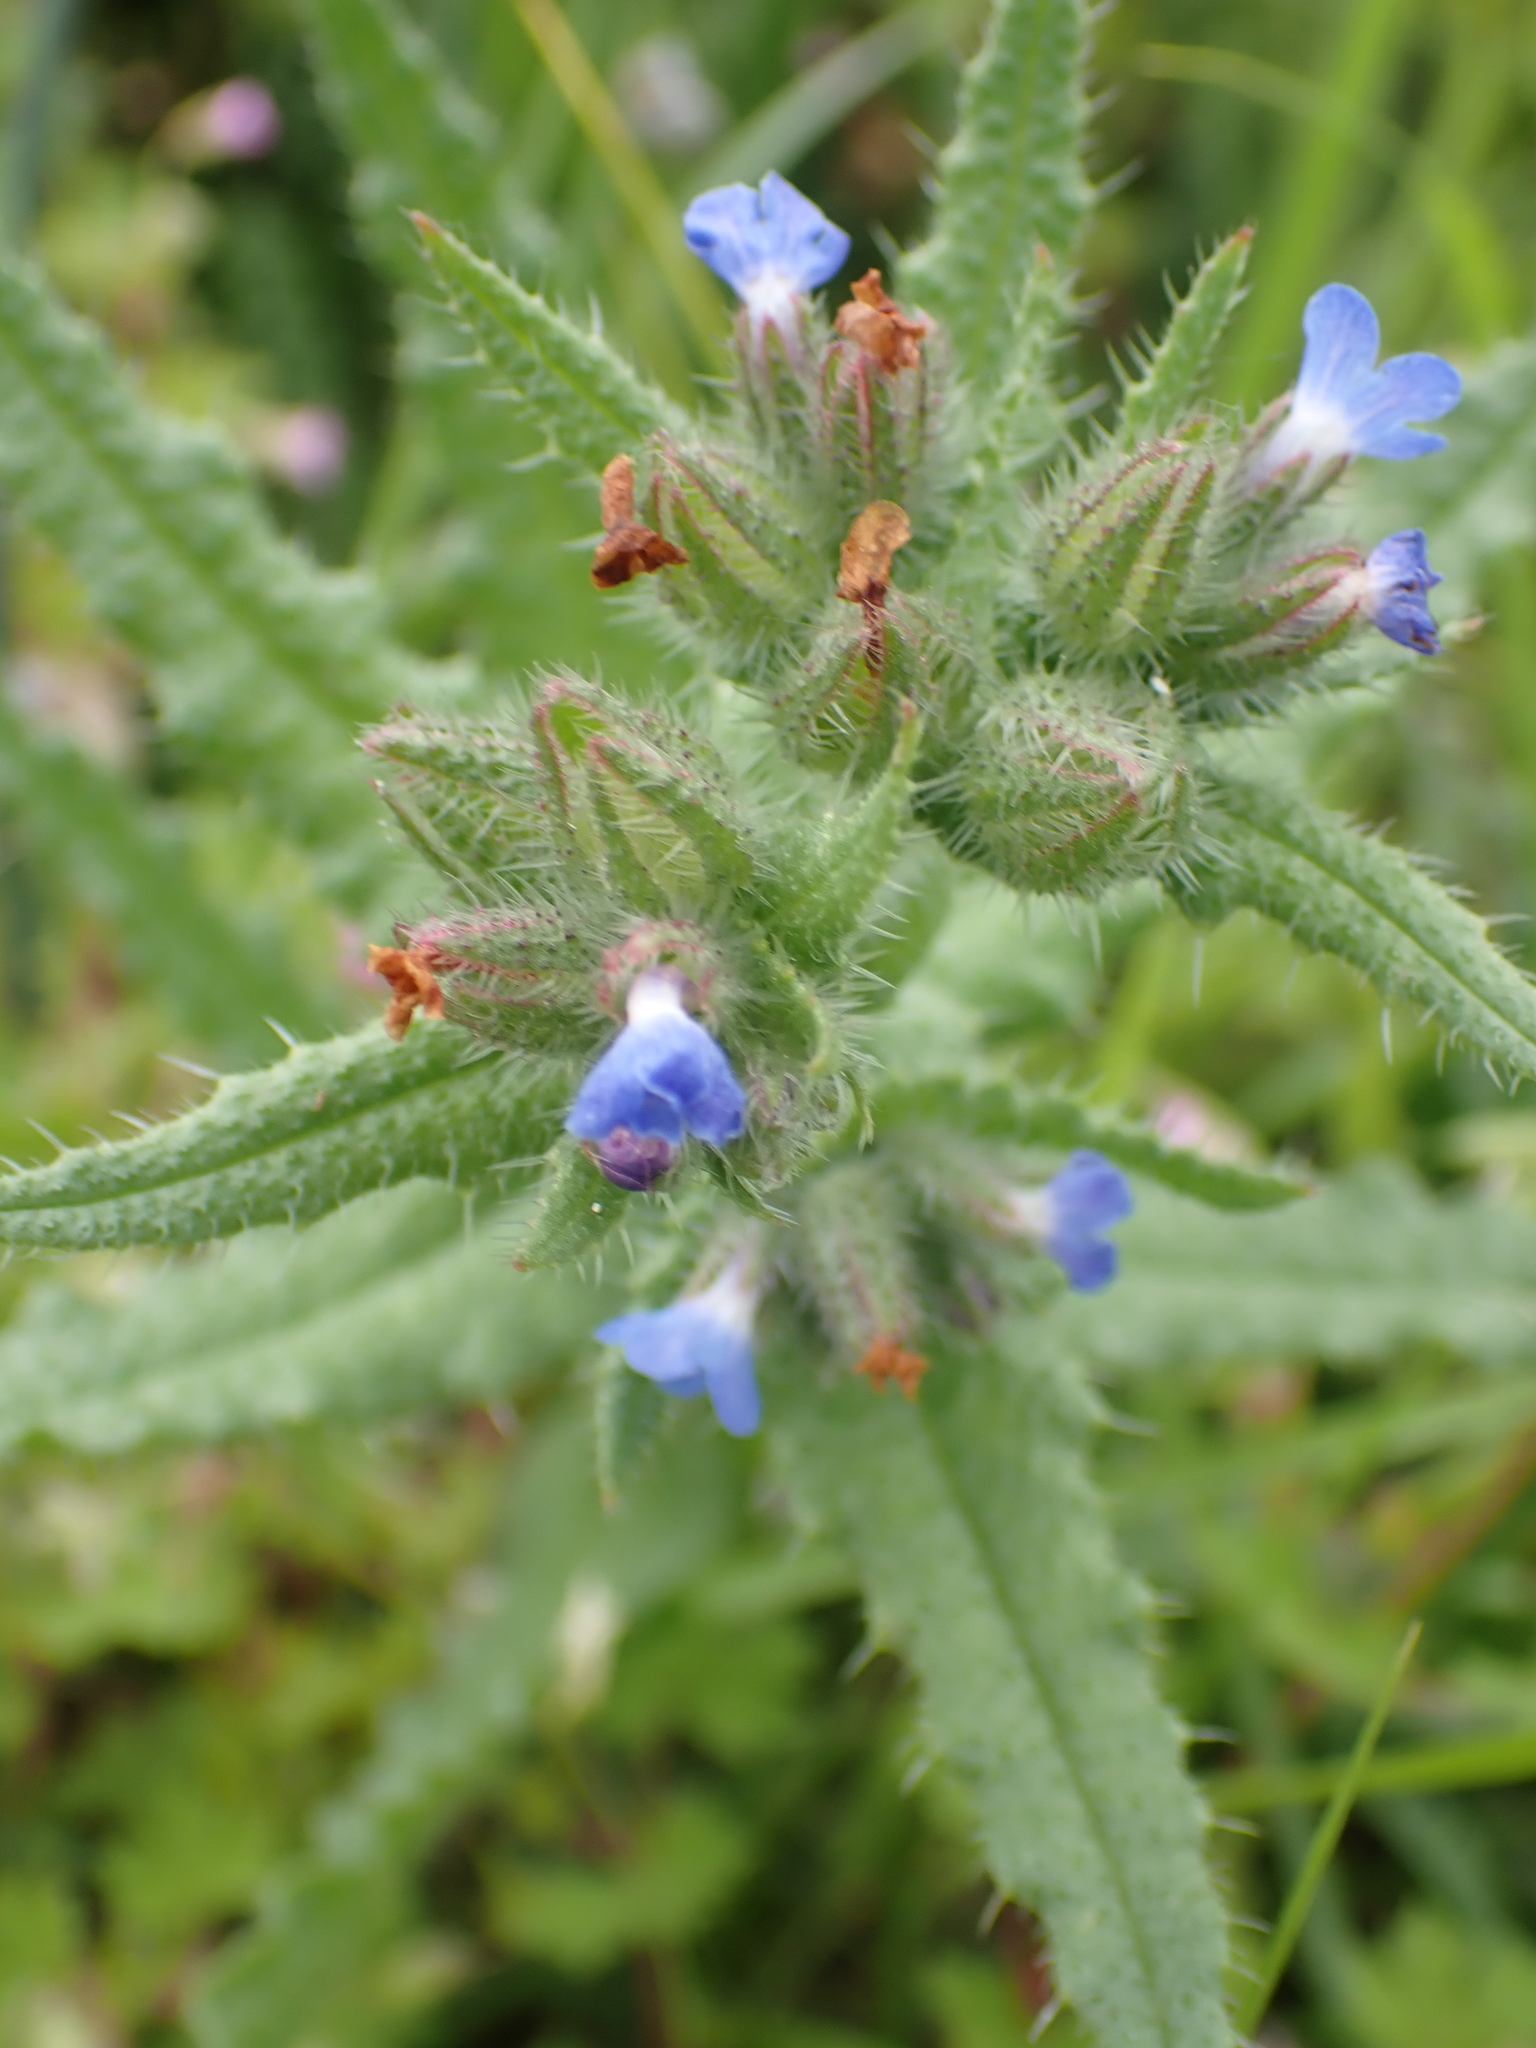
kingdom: Plantae
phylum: Tracheophyta
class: Magnoliopsida
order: Boraginales
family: Boraginaceae
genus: Lycopsis
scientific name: Lycopsis arvensis
